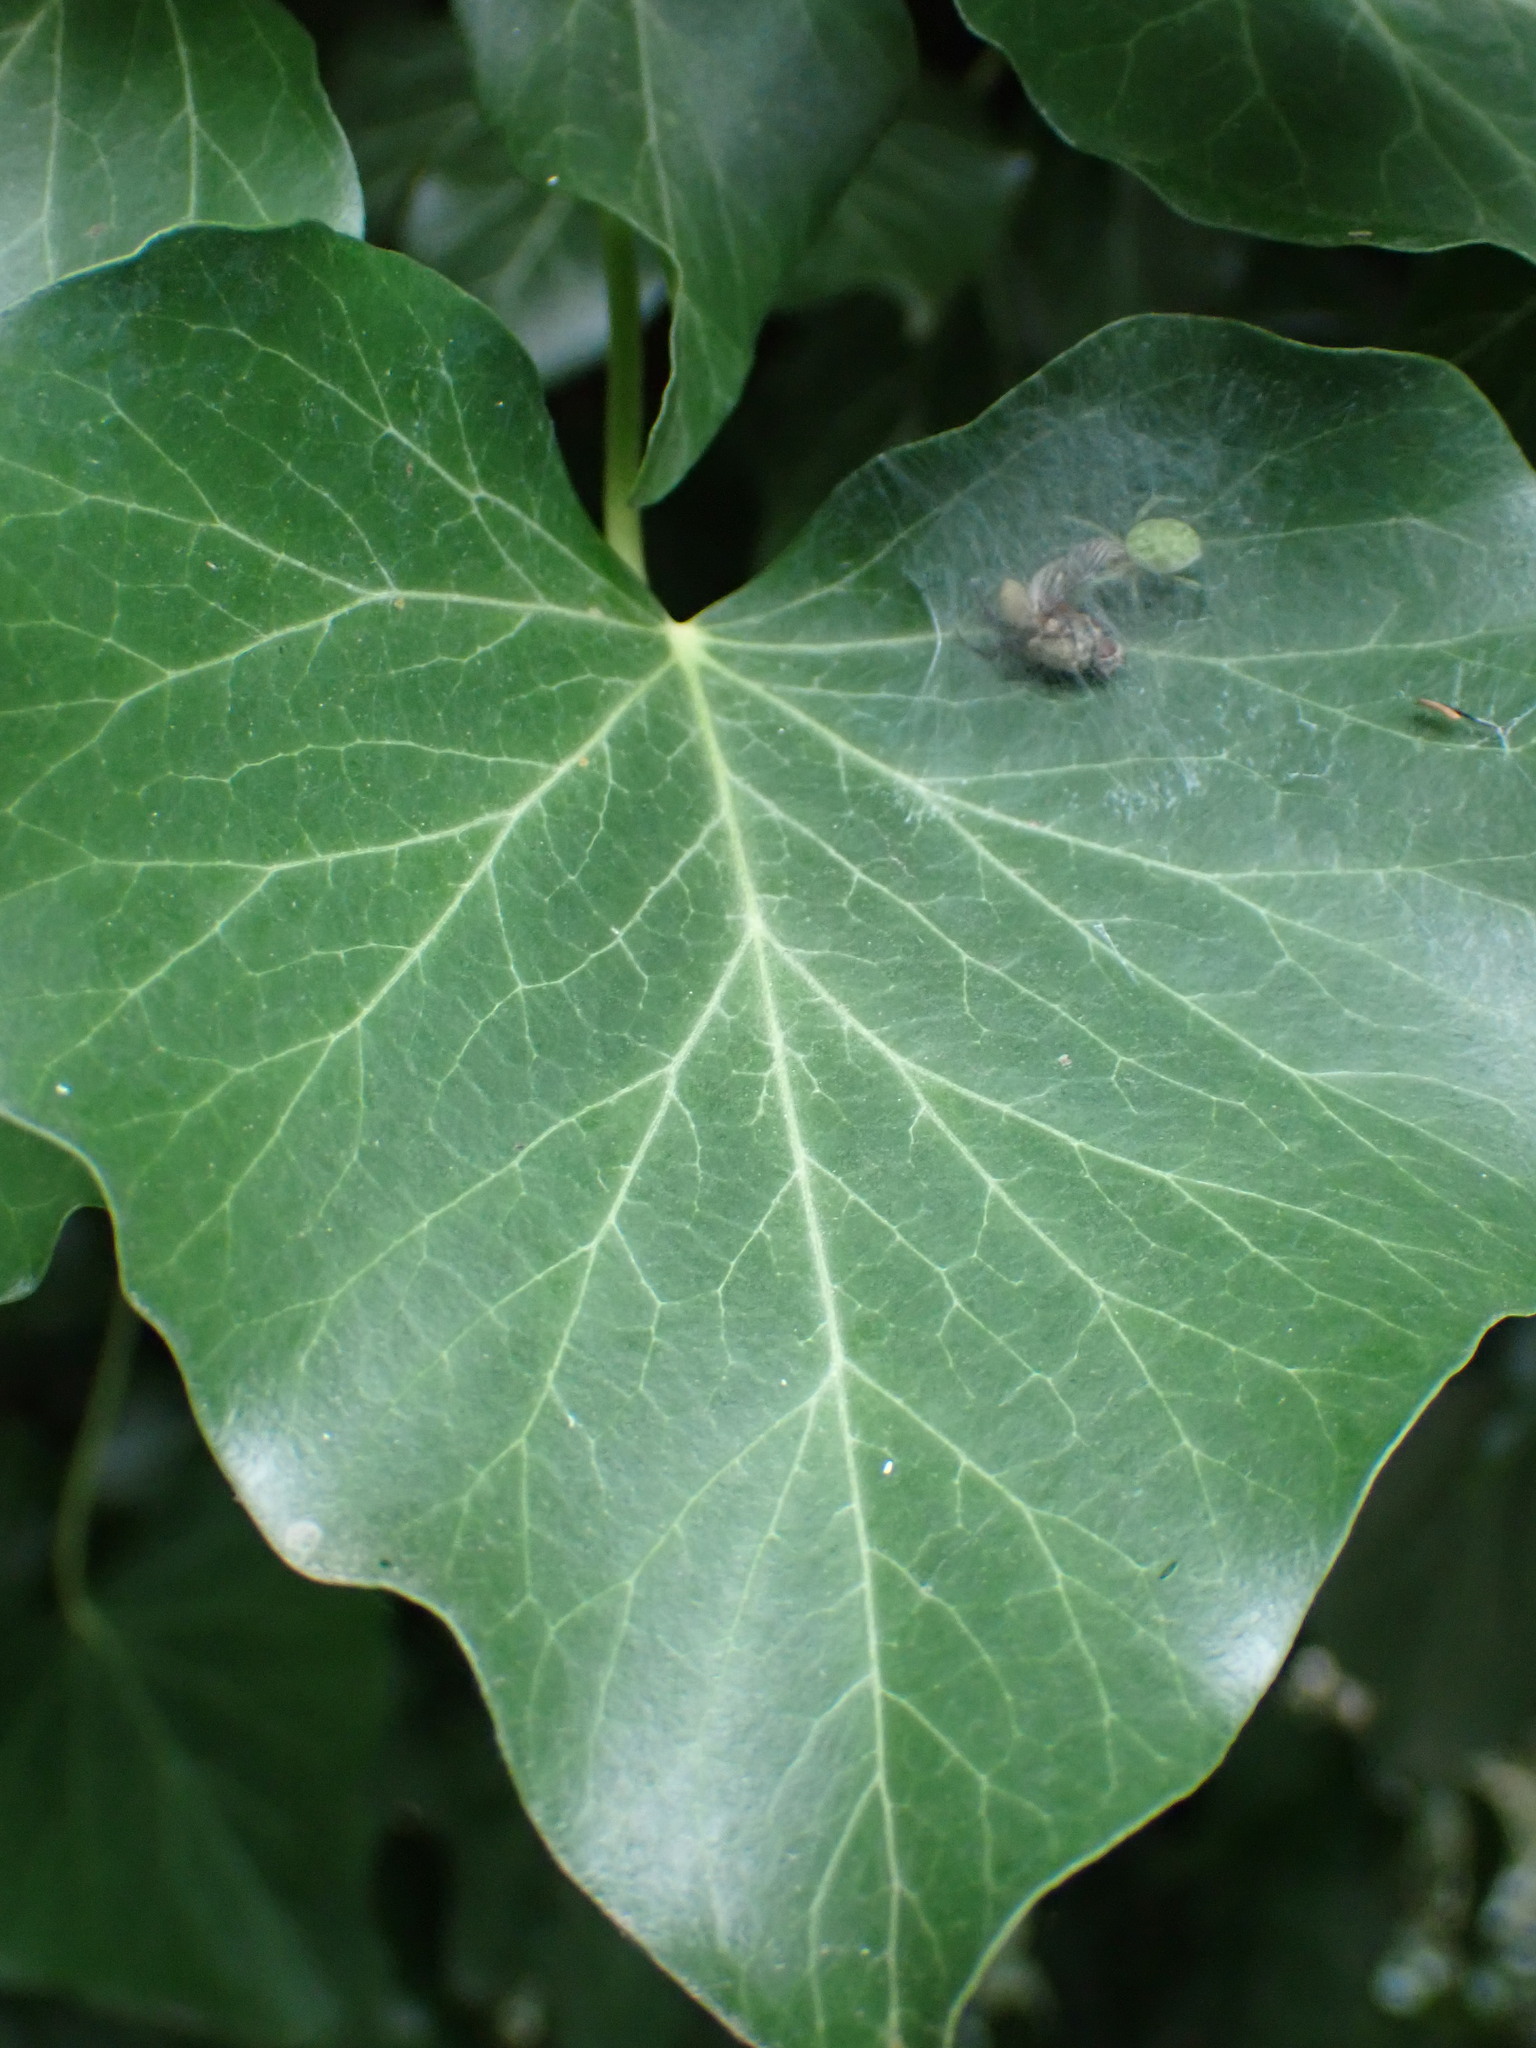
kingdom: Animalia
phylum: Arthropoda
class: Arachnida
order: Araneae
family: Dictynidae
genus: Nigma
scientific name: Nigma walckenaeri
